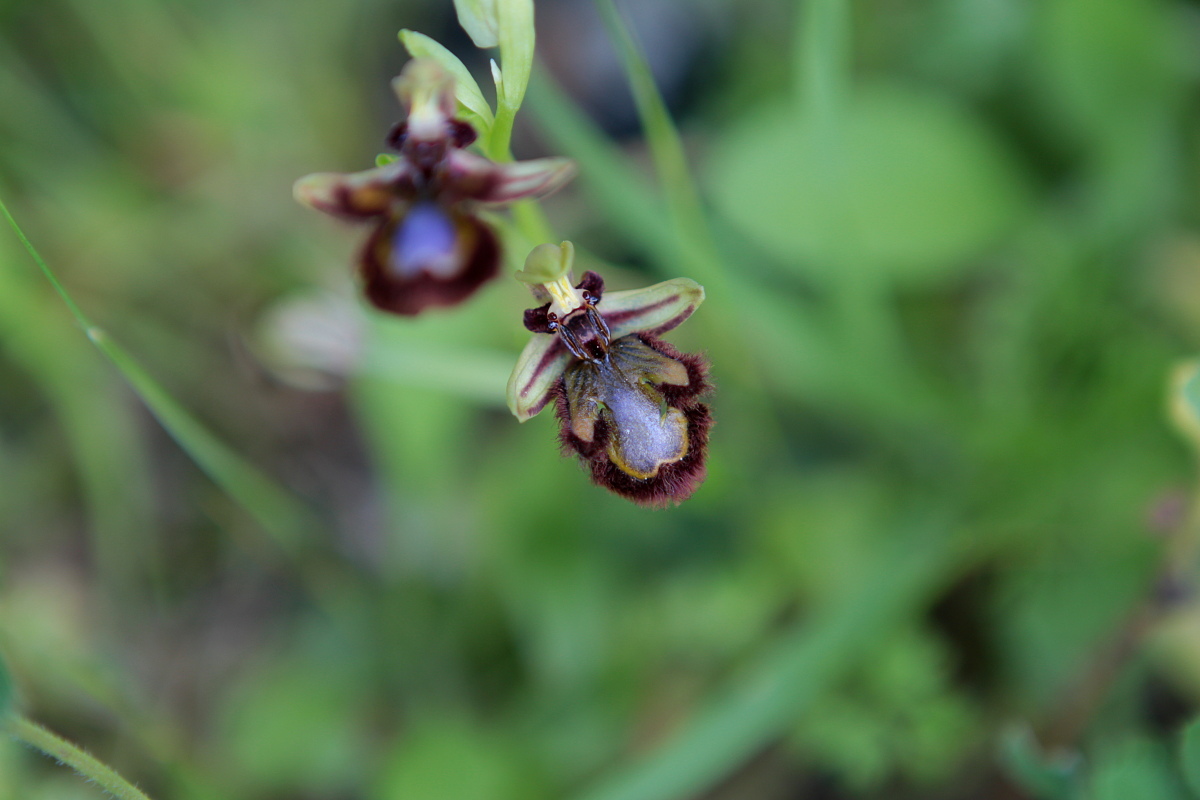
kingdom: Plantae
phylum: Tracheophyta
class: Liliopsida
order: Asparagales
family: Orchidaceae
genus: Ophrys
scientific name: Ophrys speculum
